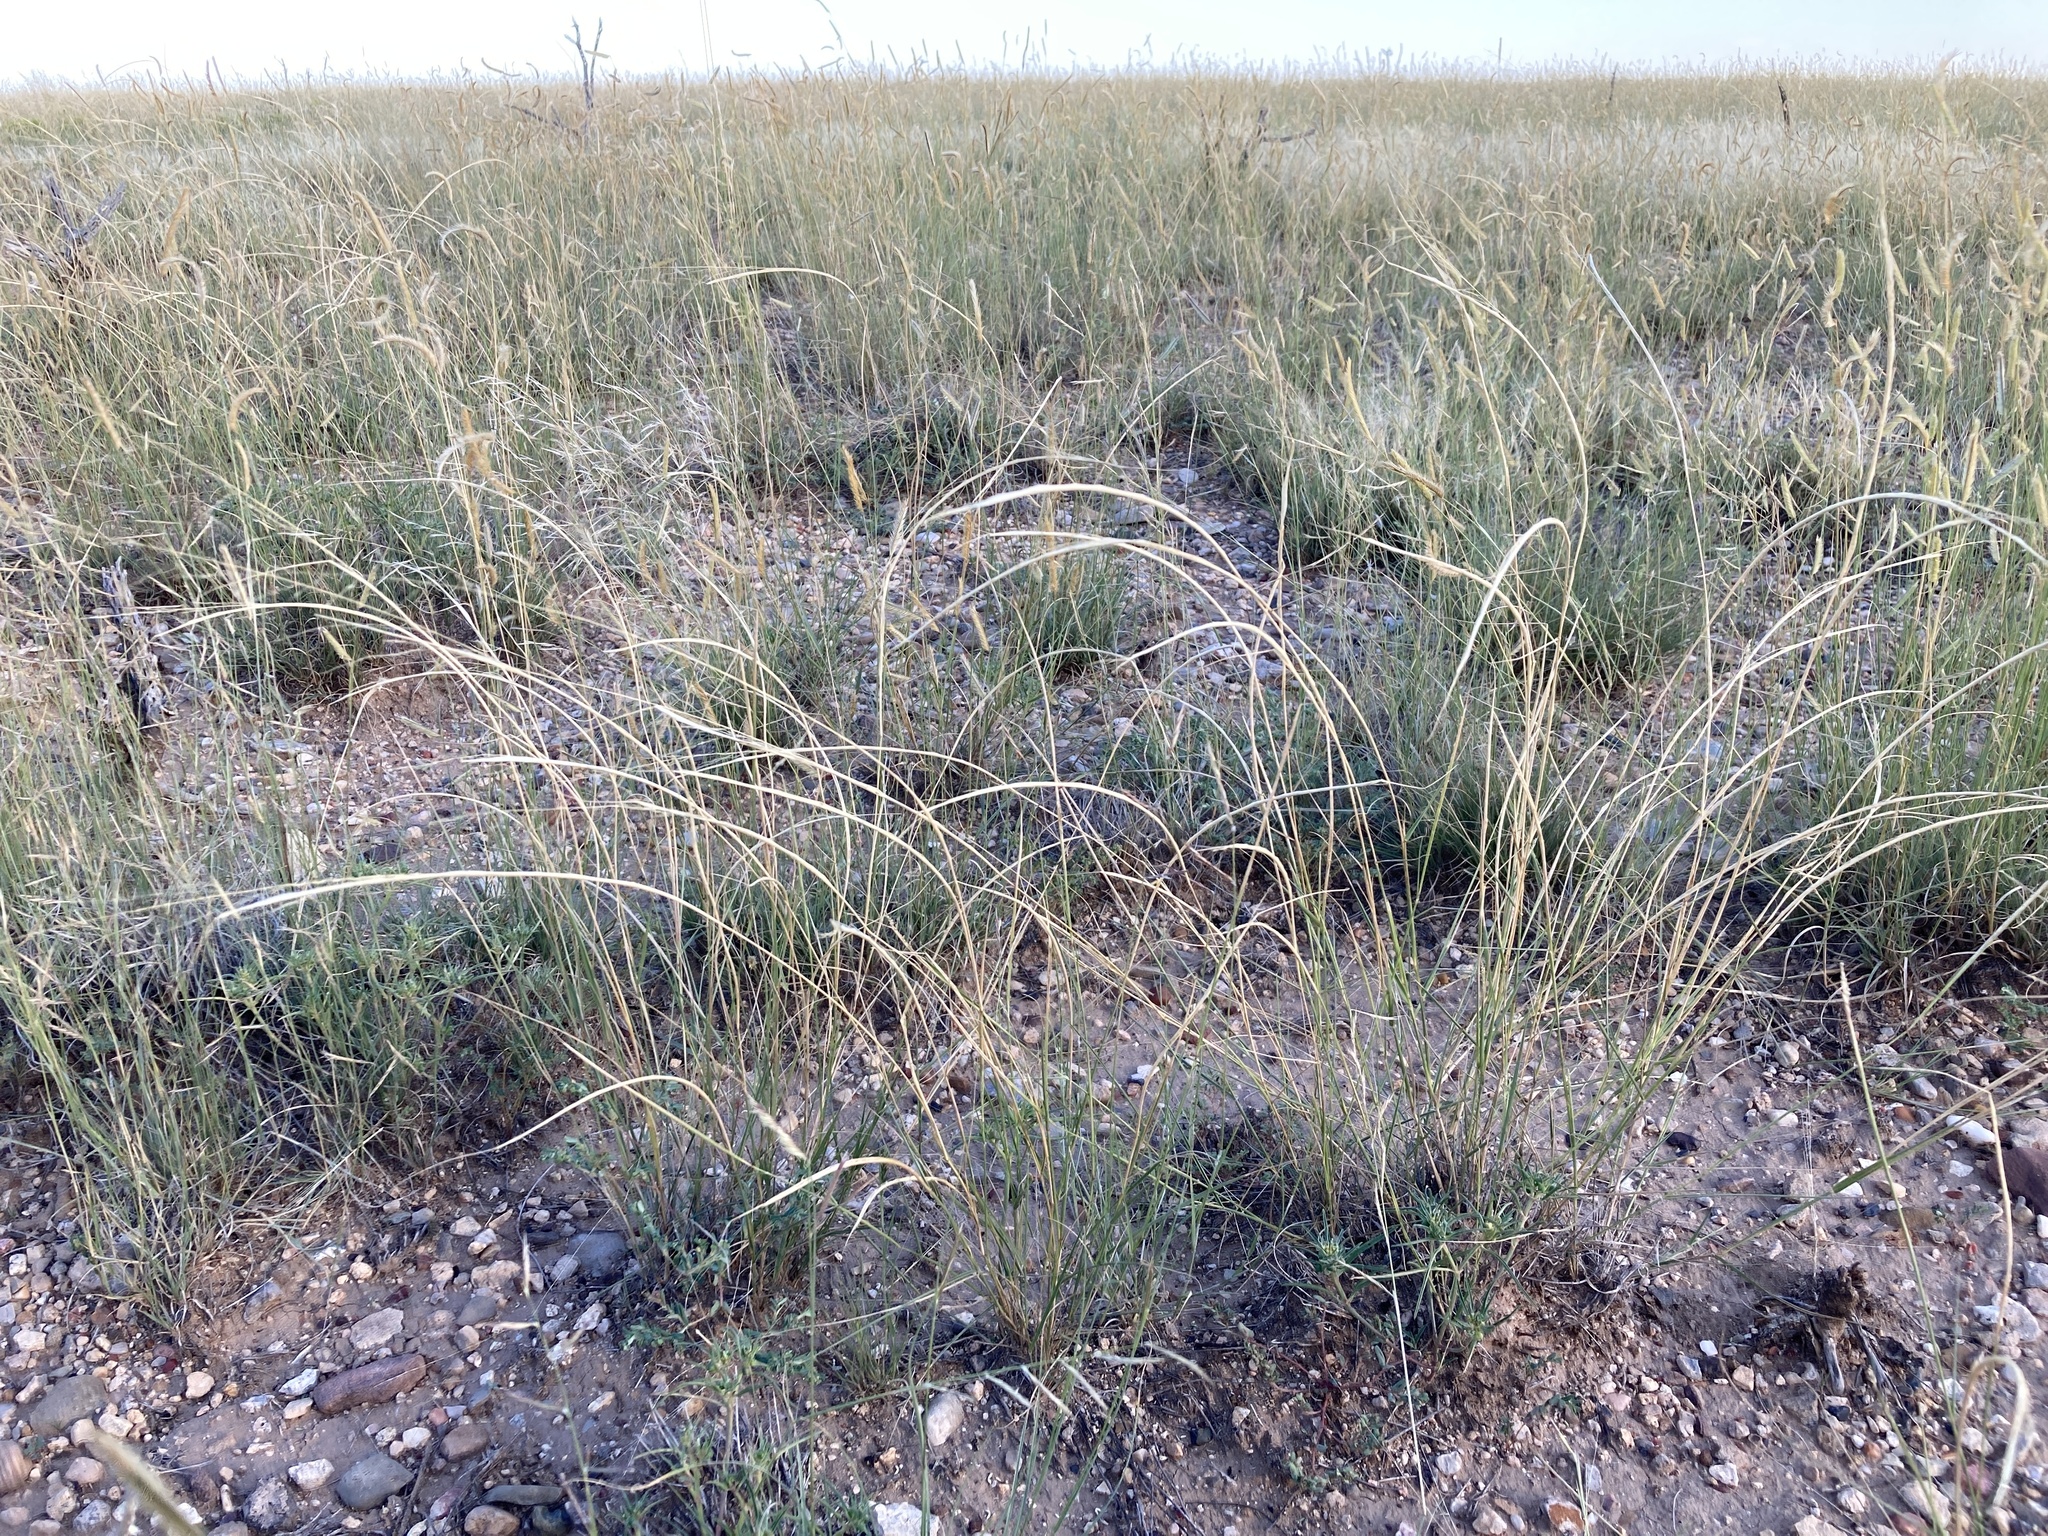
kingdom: Plantae
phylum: Tracheophyta
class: Liliopsida
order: Poales
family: Poaceae
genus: Sporobolus
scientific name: Sporobolus cryptandrus
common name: Sand dropseed
